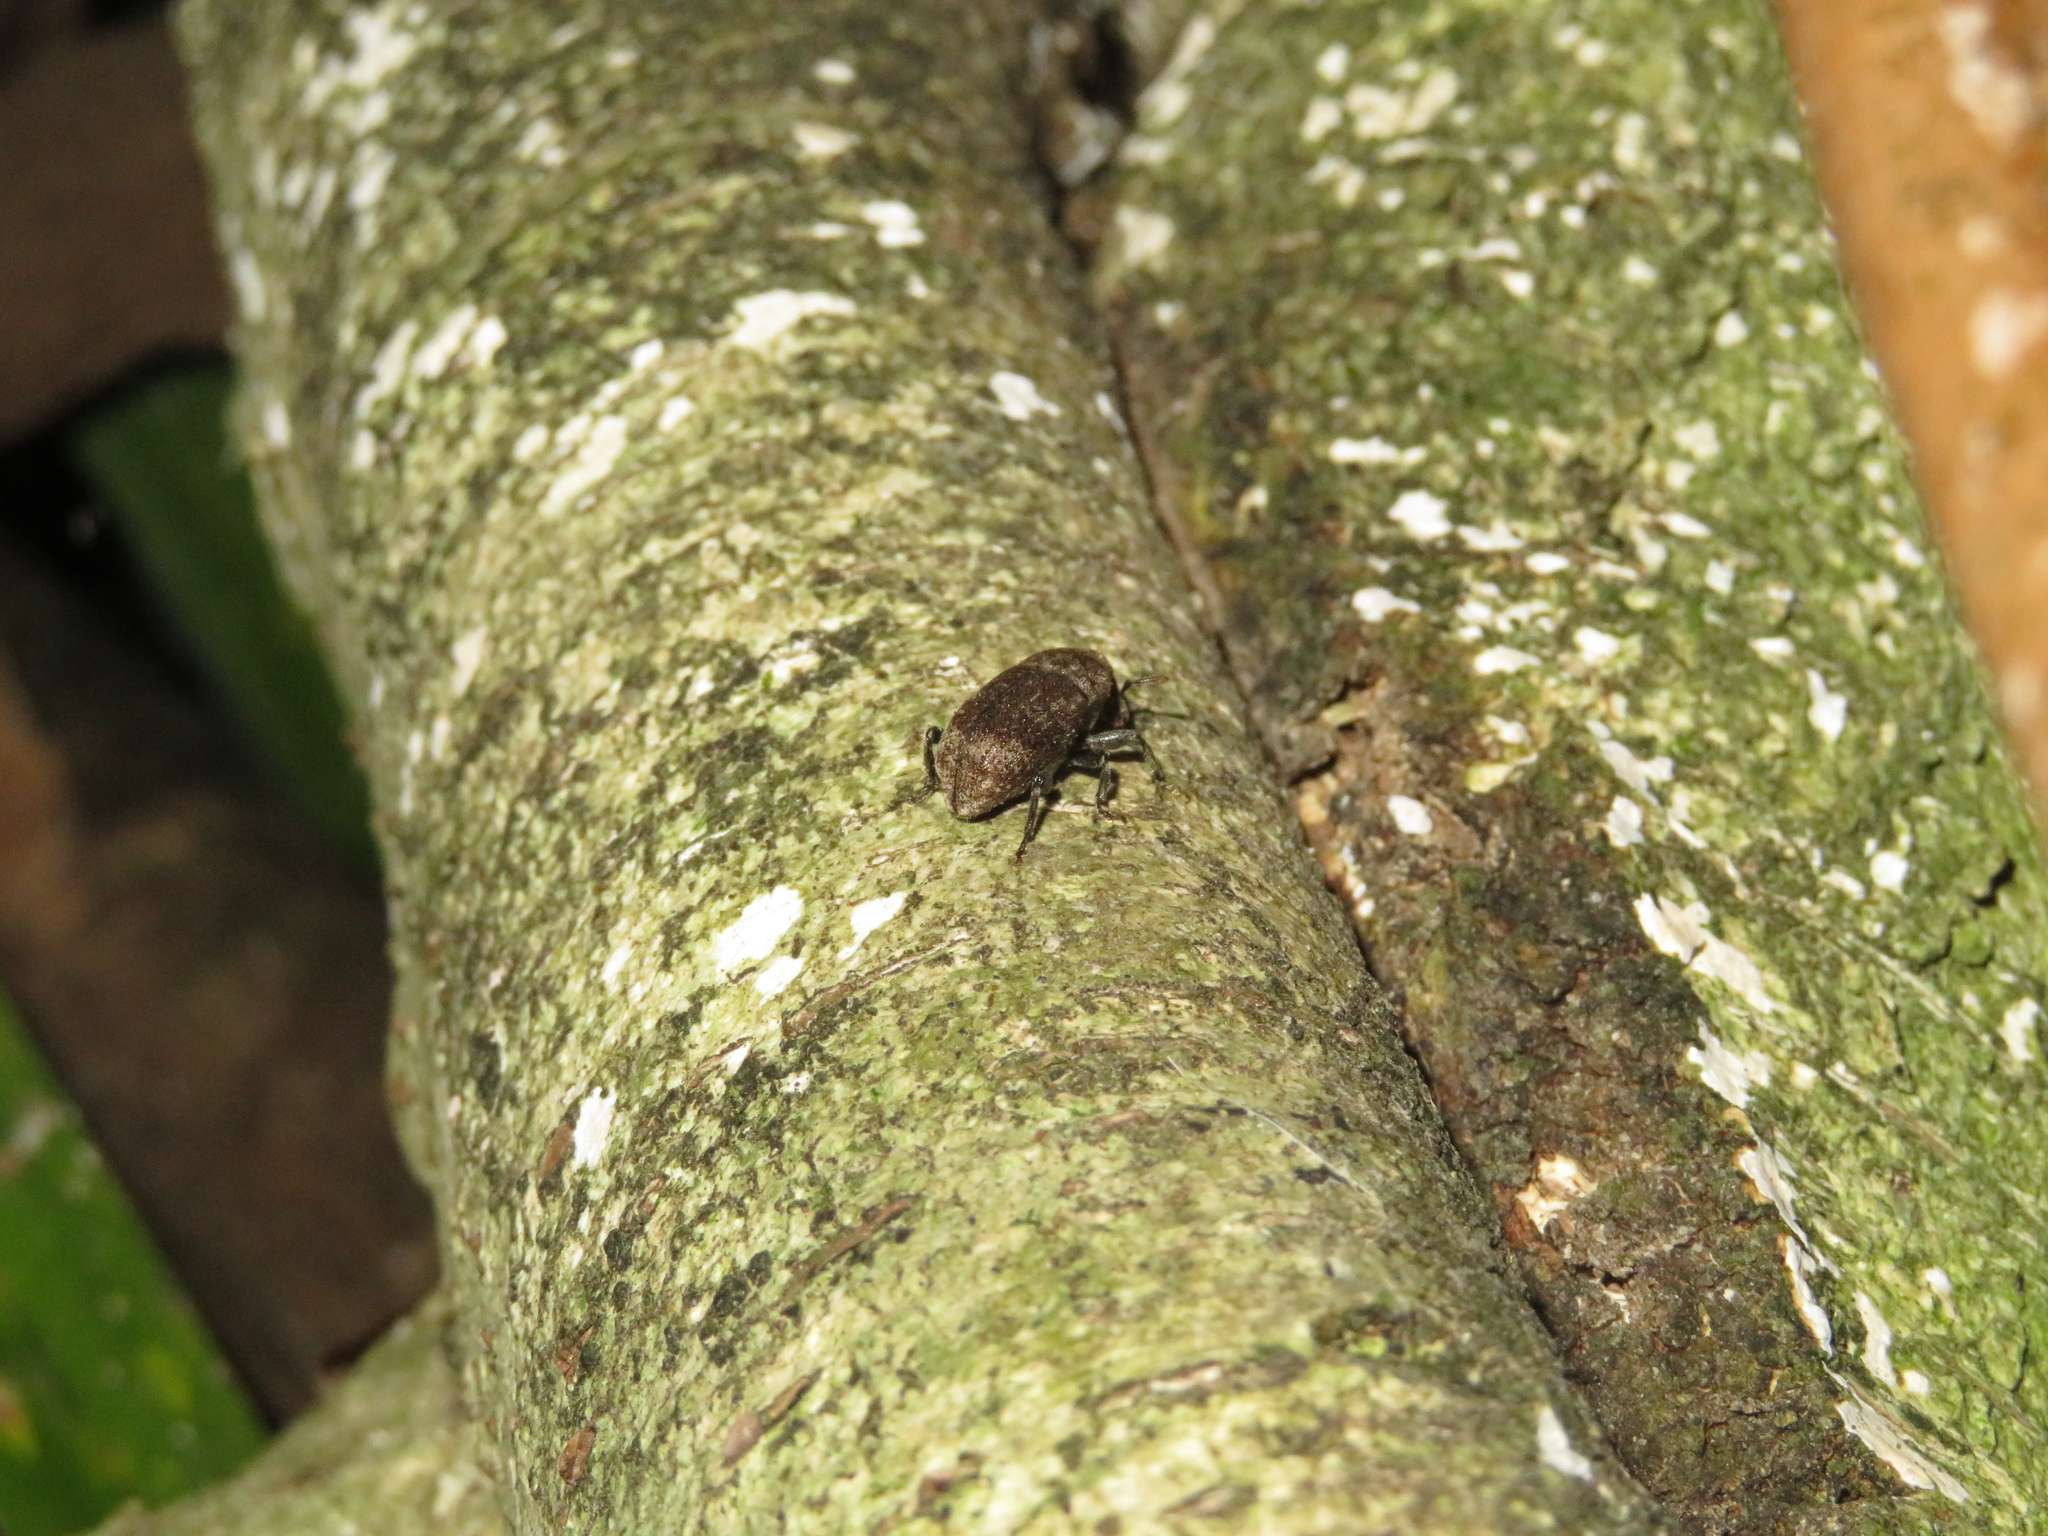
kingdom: Animalia
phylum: Arthropoda
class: Insecta
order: Coleoptera
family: Curculionidae
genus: Homoreda
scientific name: Homoreda
